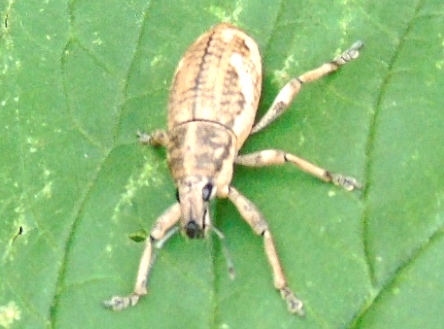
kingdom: Animalia
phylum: Arthropoda
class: Insecta
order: Coleoptera
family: Curculionidae
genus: Epicaerus
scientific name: Epicaerus
